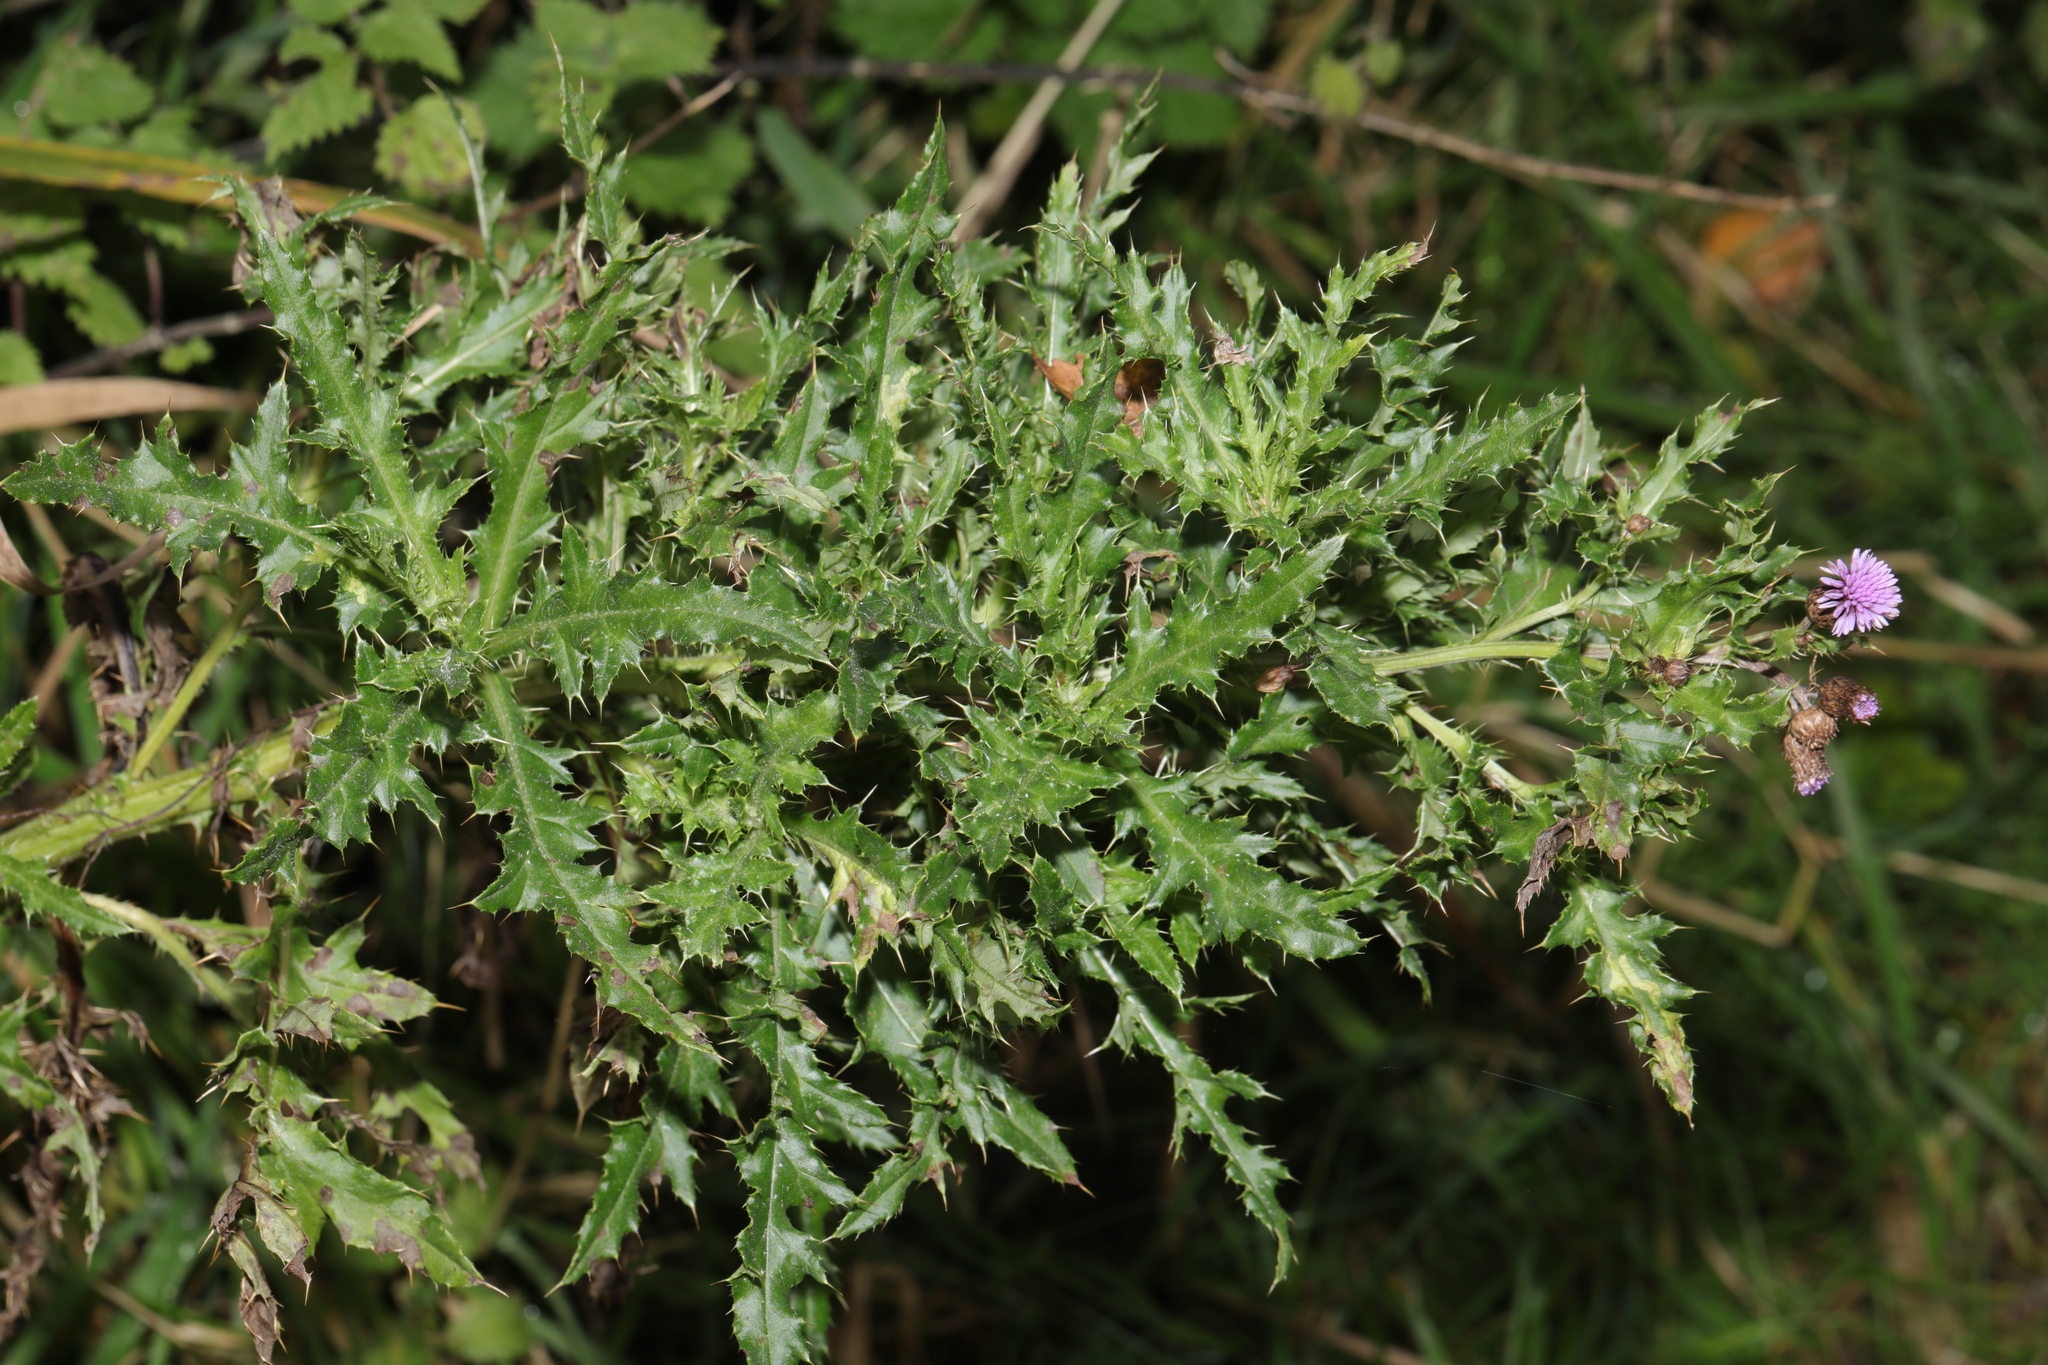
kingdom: Plantae
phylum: Tracheophyta
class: Magnoliopsida
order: Asterales
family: Asteraceae
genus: Cirsium
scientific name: Cirsium arvense
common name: Creeping thistle
